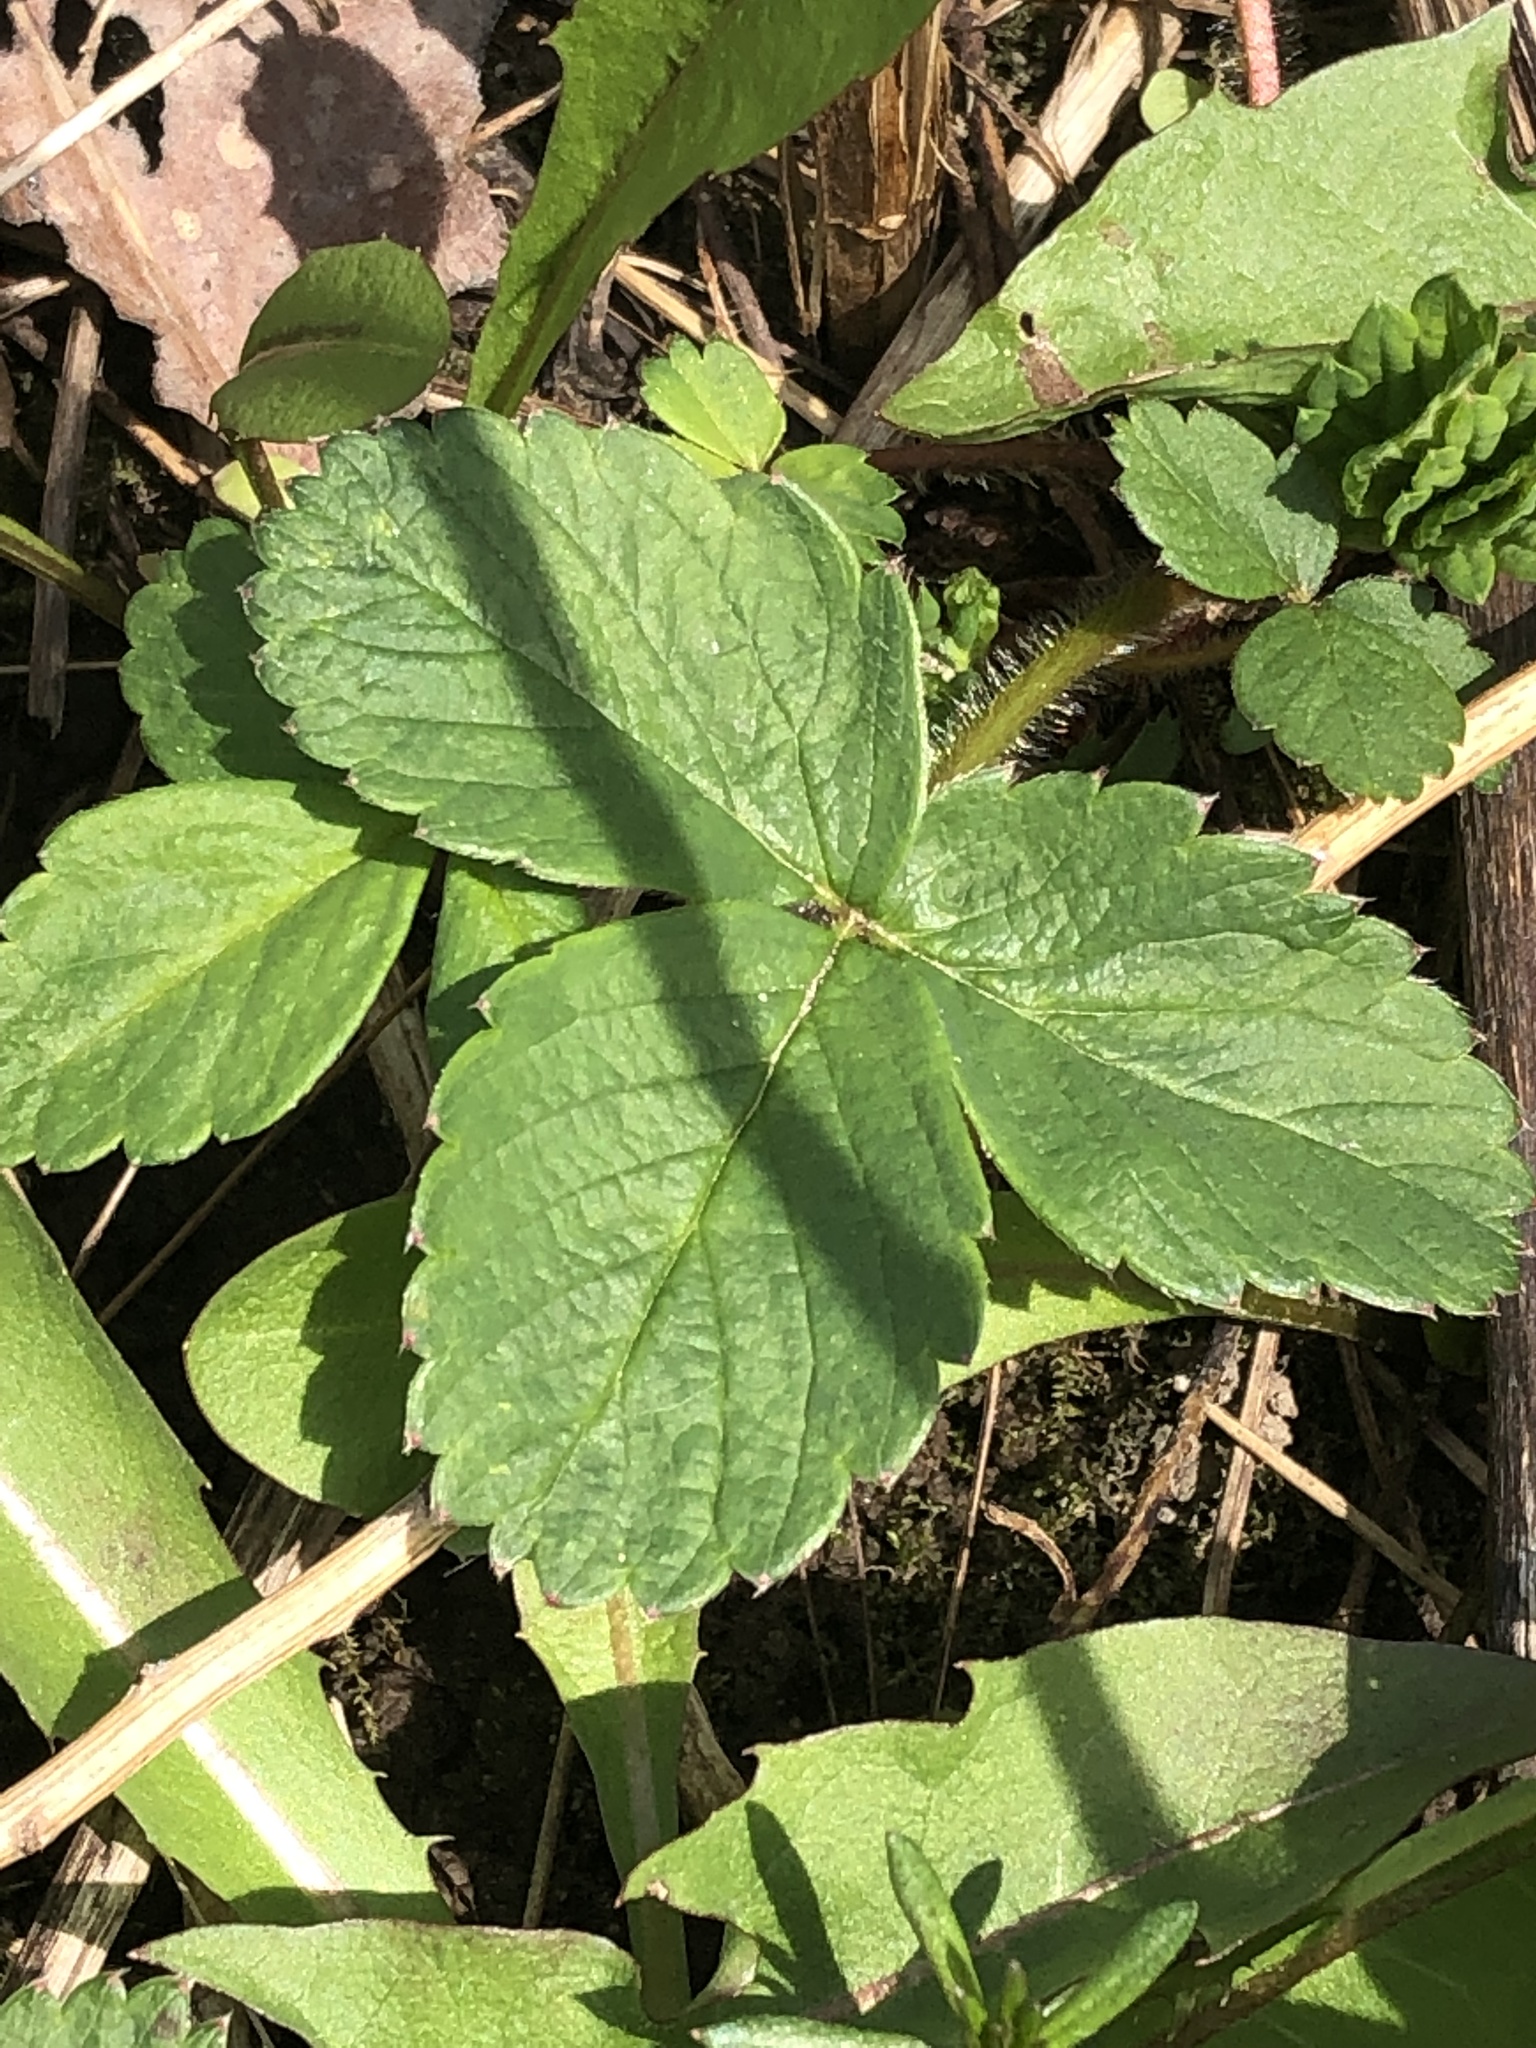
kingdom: Plantae
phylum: Tracheophyta
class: Magnoliopsida
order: Rosales
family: Rosaceae
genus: Fragaria
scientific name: Fragaria virginiana
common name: Thickleaved wild strawberry
